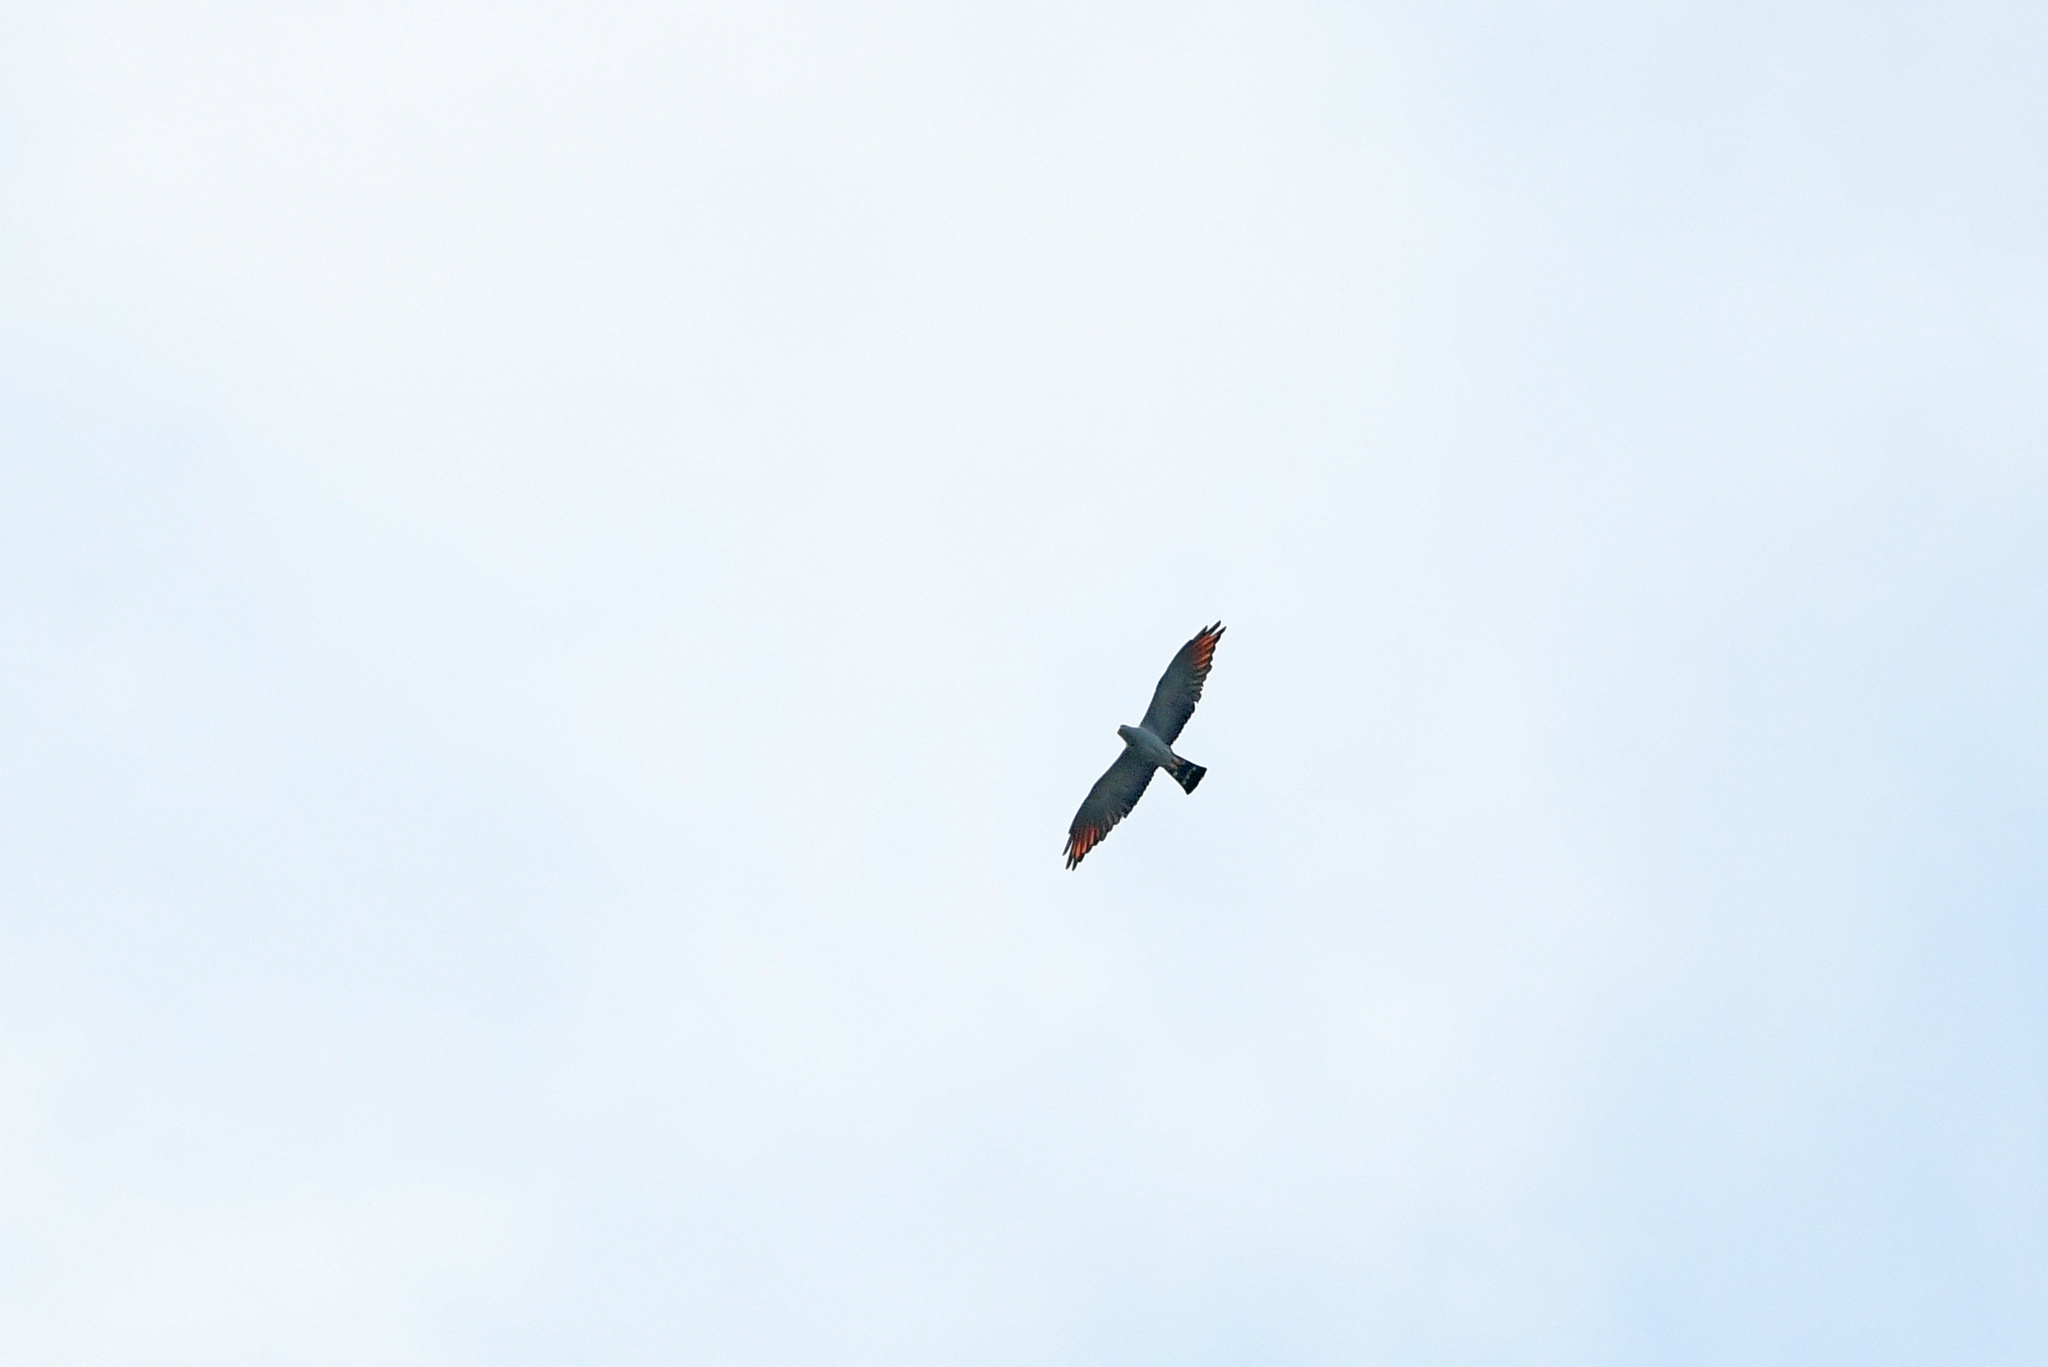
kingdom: Animalia
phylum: Chordata
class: Aves
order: Accipitriformes
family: Accipitridae
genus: Ictinia
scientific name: Ictinia plumbea
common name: Plumbeous kite
